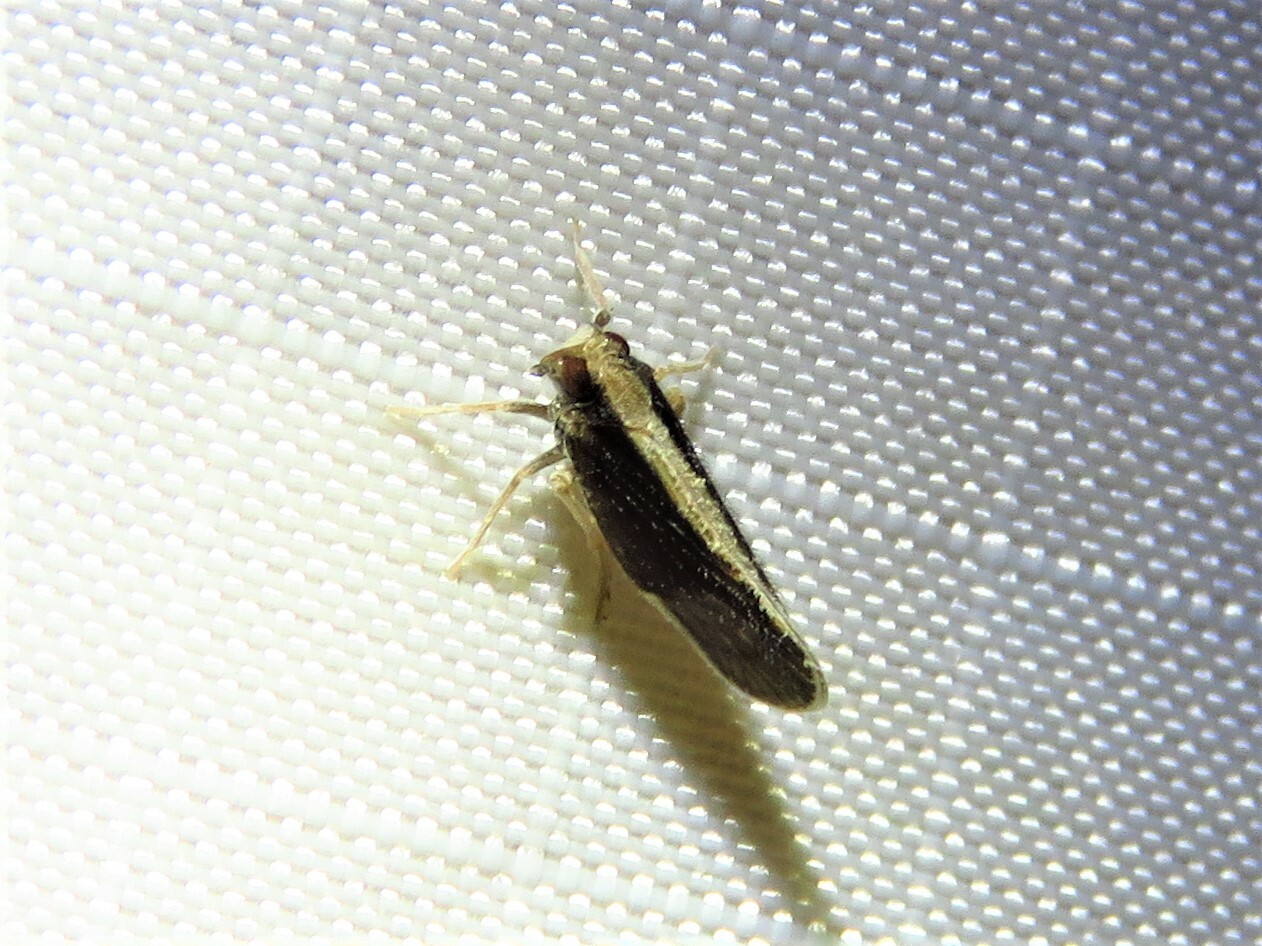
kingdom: Animalia
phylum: Arthropoda
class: Insecta
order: Hemiptera
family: Cixiidae
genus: Pintalia
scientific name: Pintalia delicata
